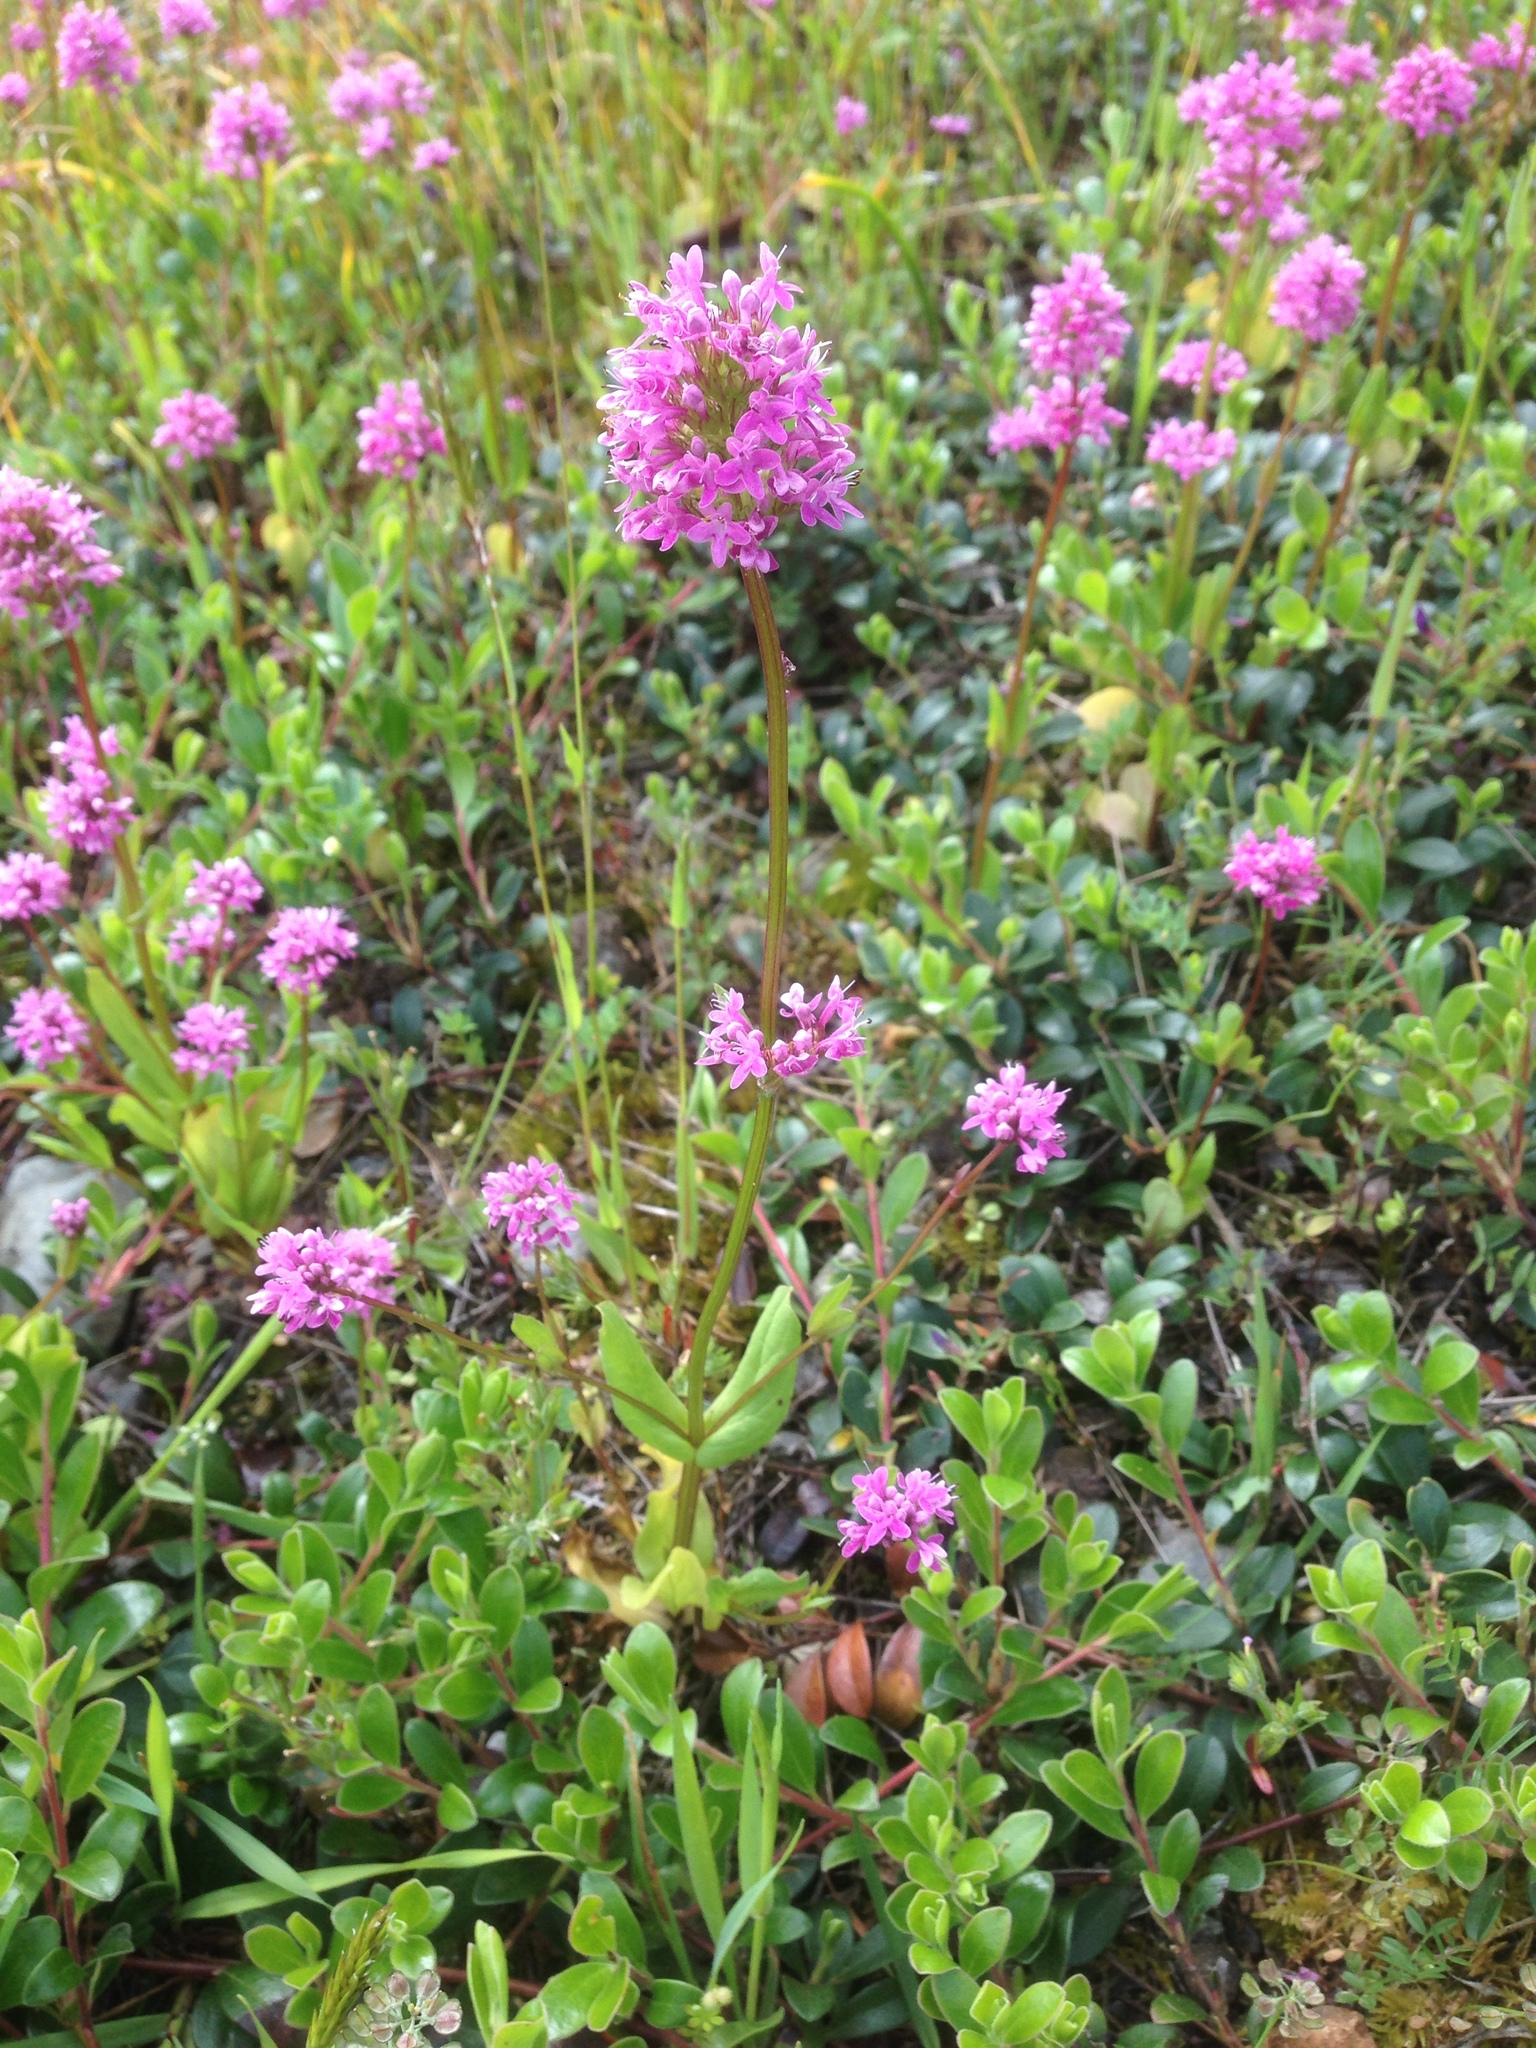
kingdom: Plantae
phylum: Tracheophyta
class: Magnoliopsida
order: Dipsacales
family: Caprifoliaceae
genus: Plectritis
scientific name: Plectritis congesta
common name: Pink plectritis
